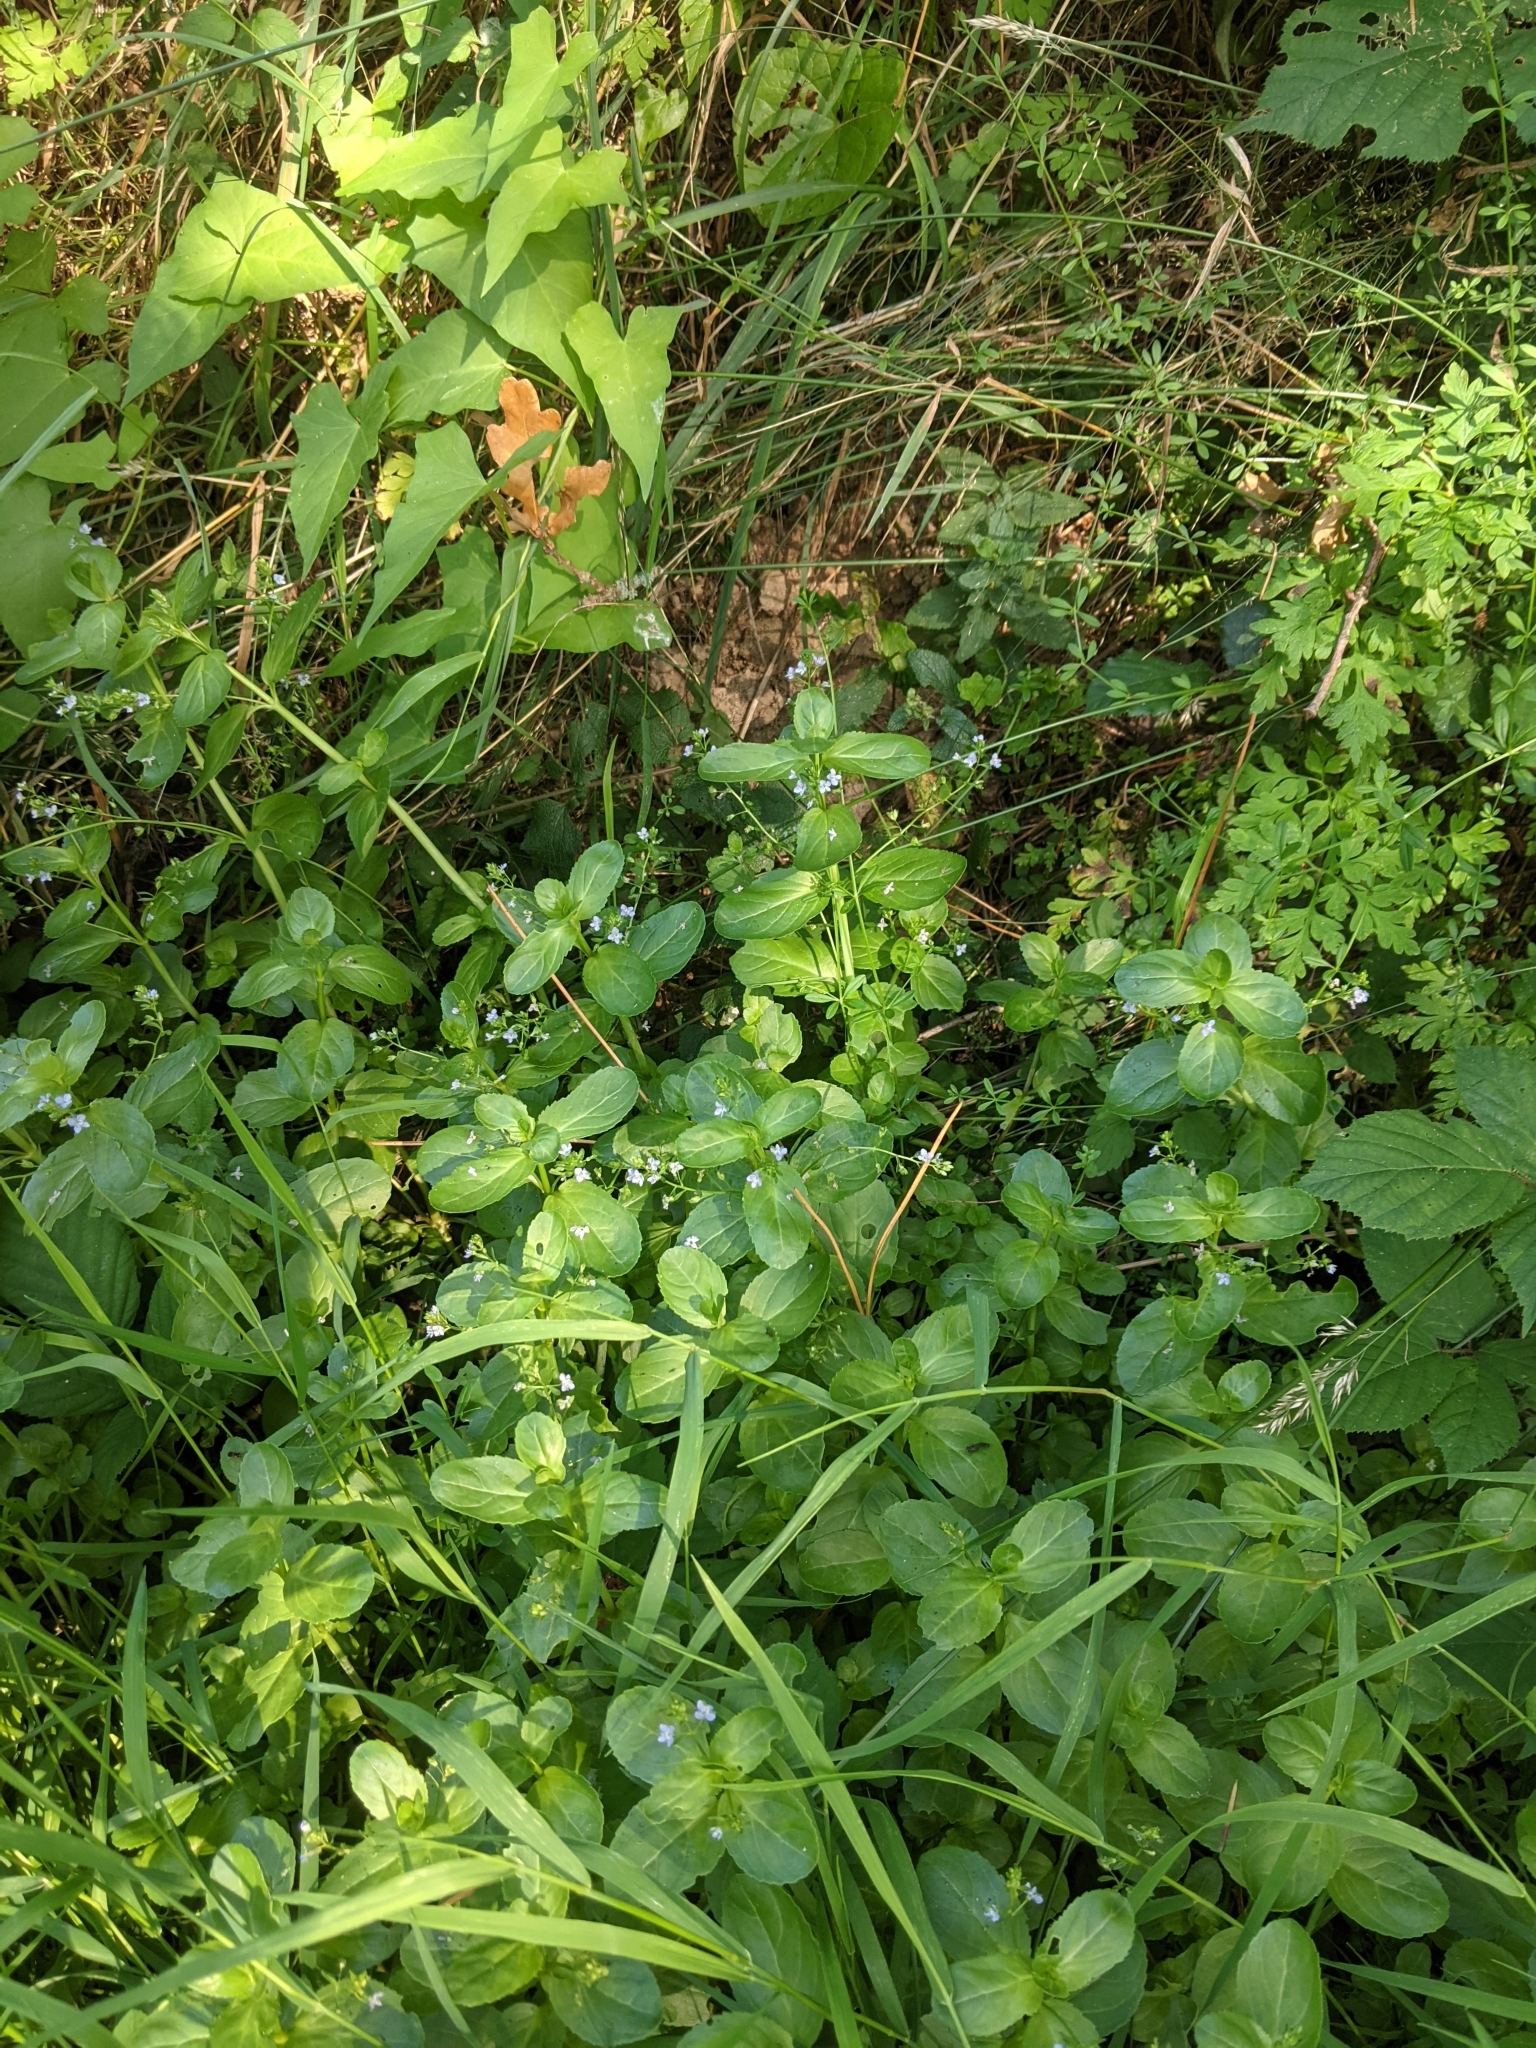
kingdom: Plantae
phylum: Tracheophyta
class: Magnoliopsida
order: Lamiales
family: Plantaginaceae
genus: Veronica
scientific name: Veronica beccabunga
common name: Brooklime
